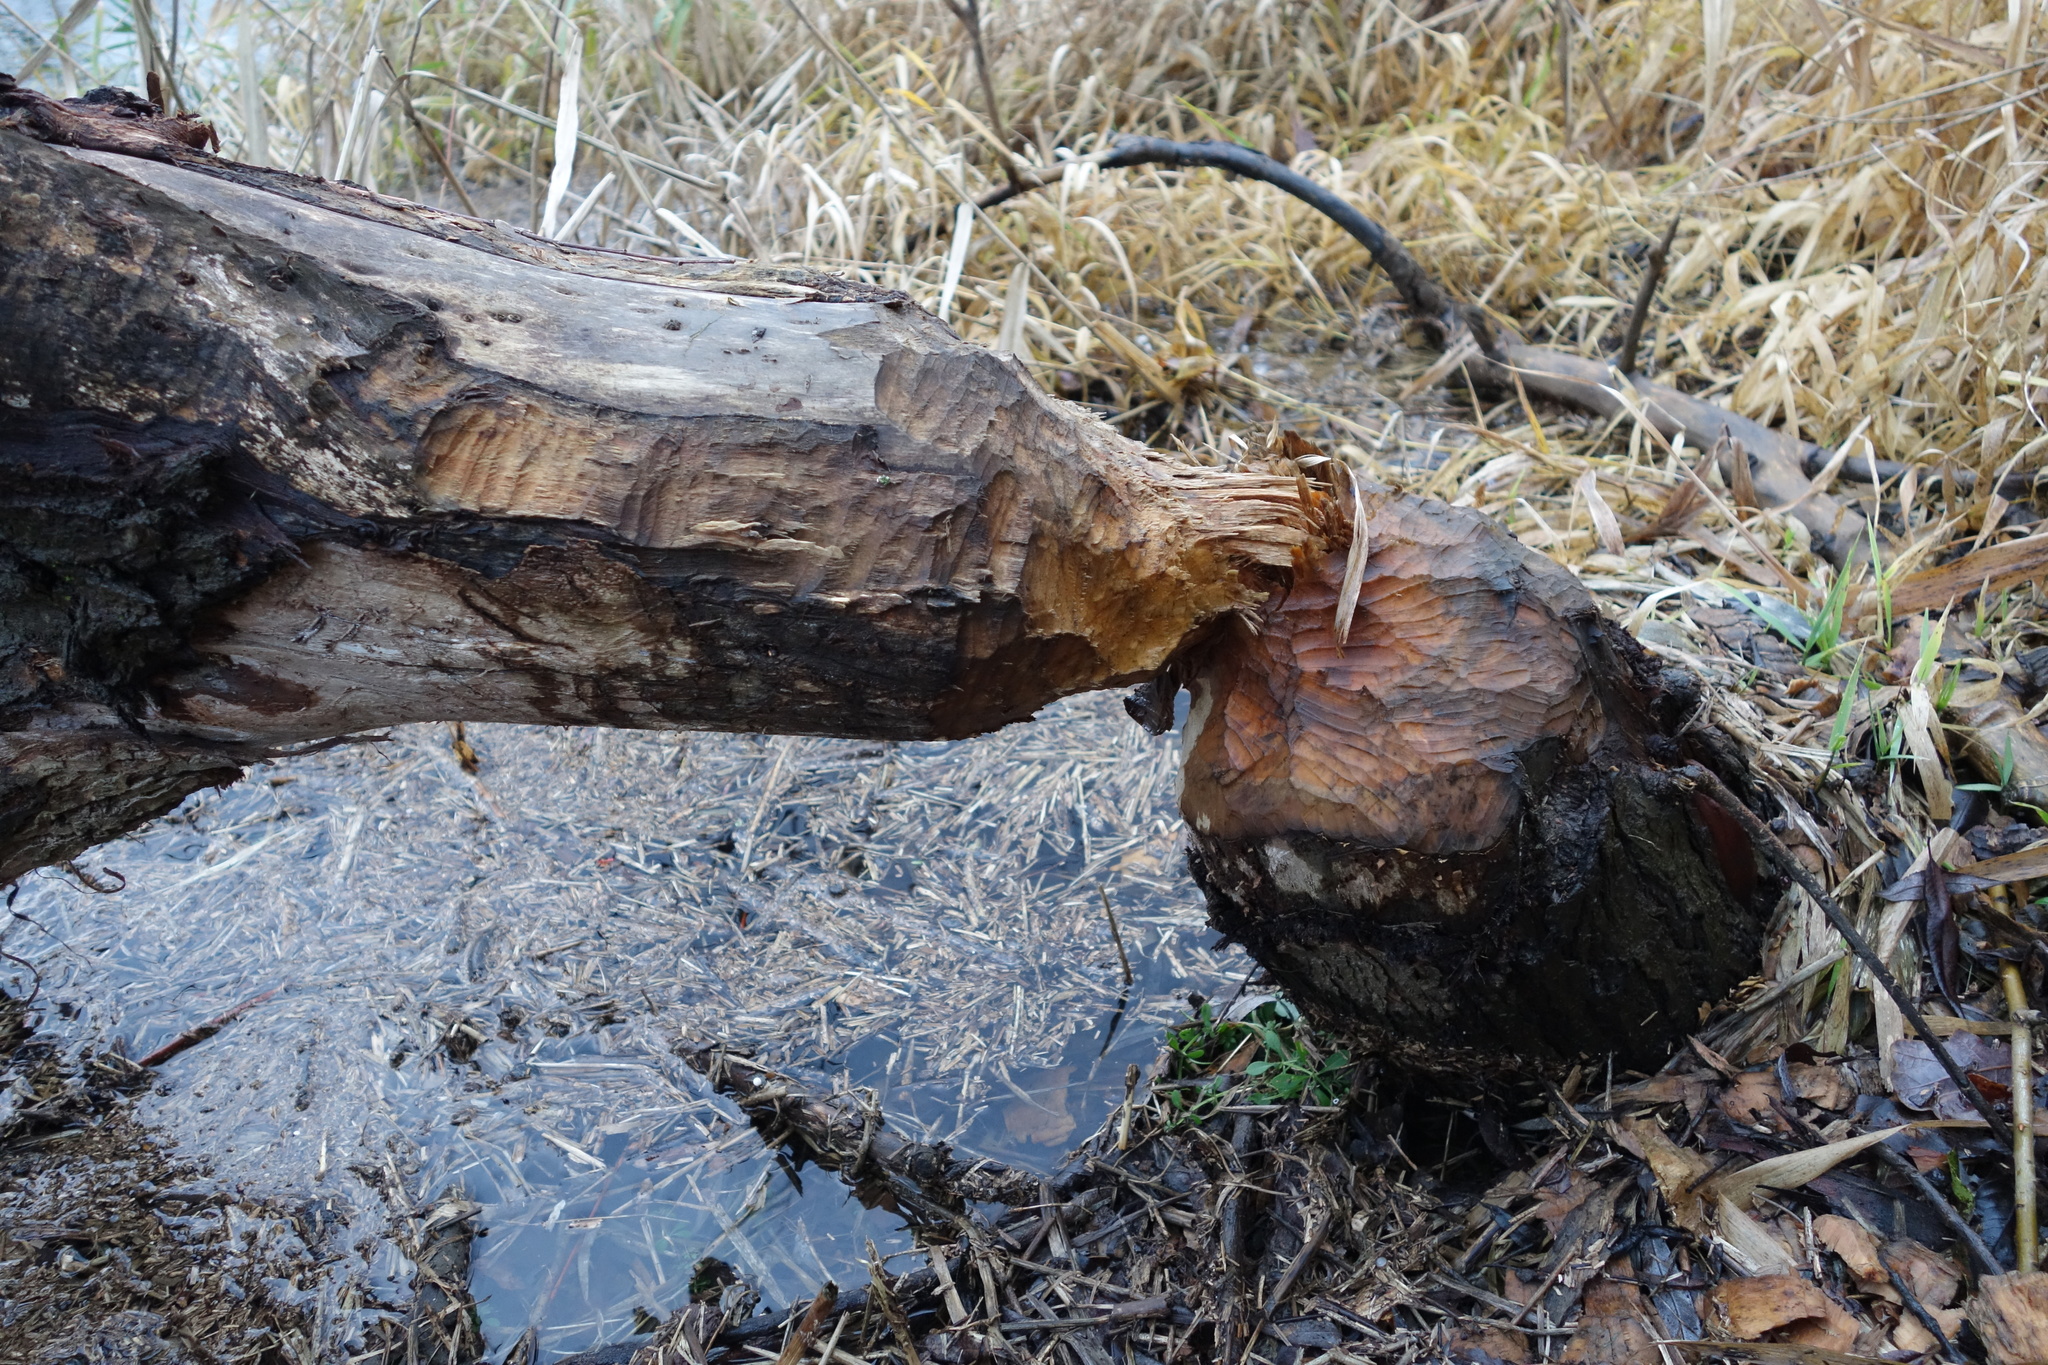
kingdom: Animalia
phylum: Chordata
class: Mammalia
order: Rodentia
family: Castoridae
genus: Castor
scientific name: Castor fiber
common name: Eurasian beaver
